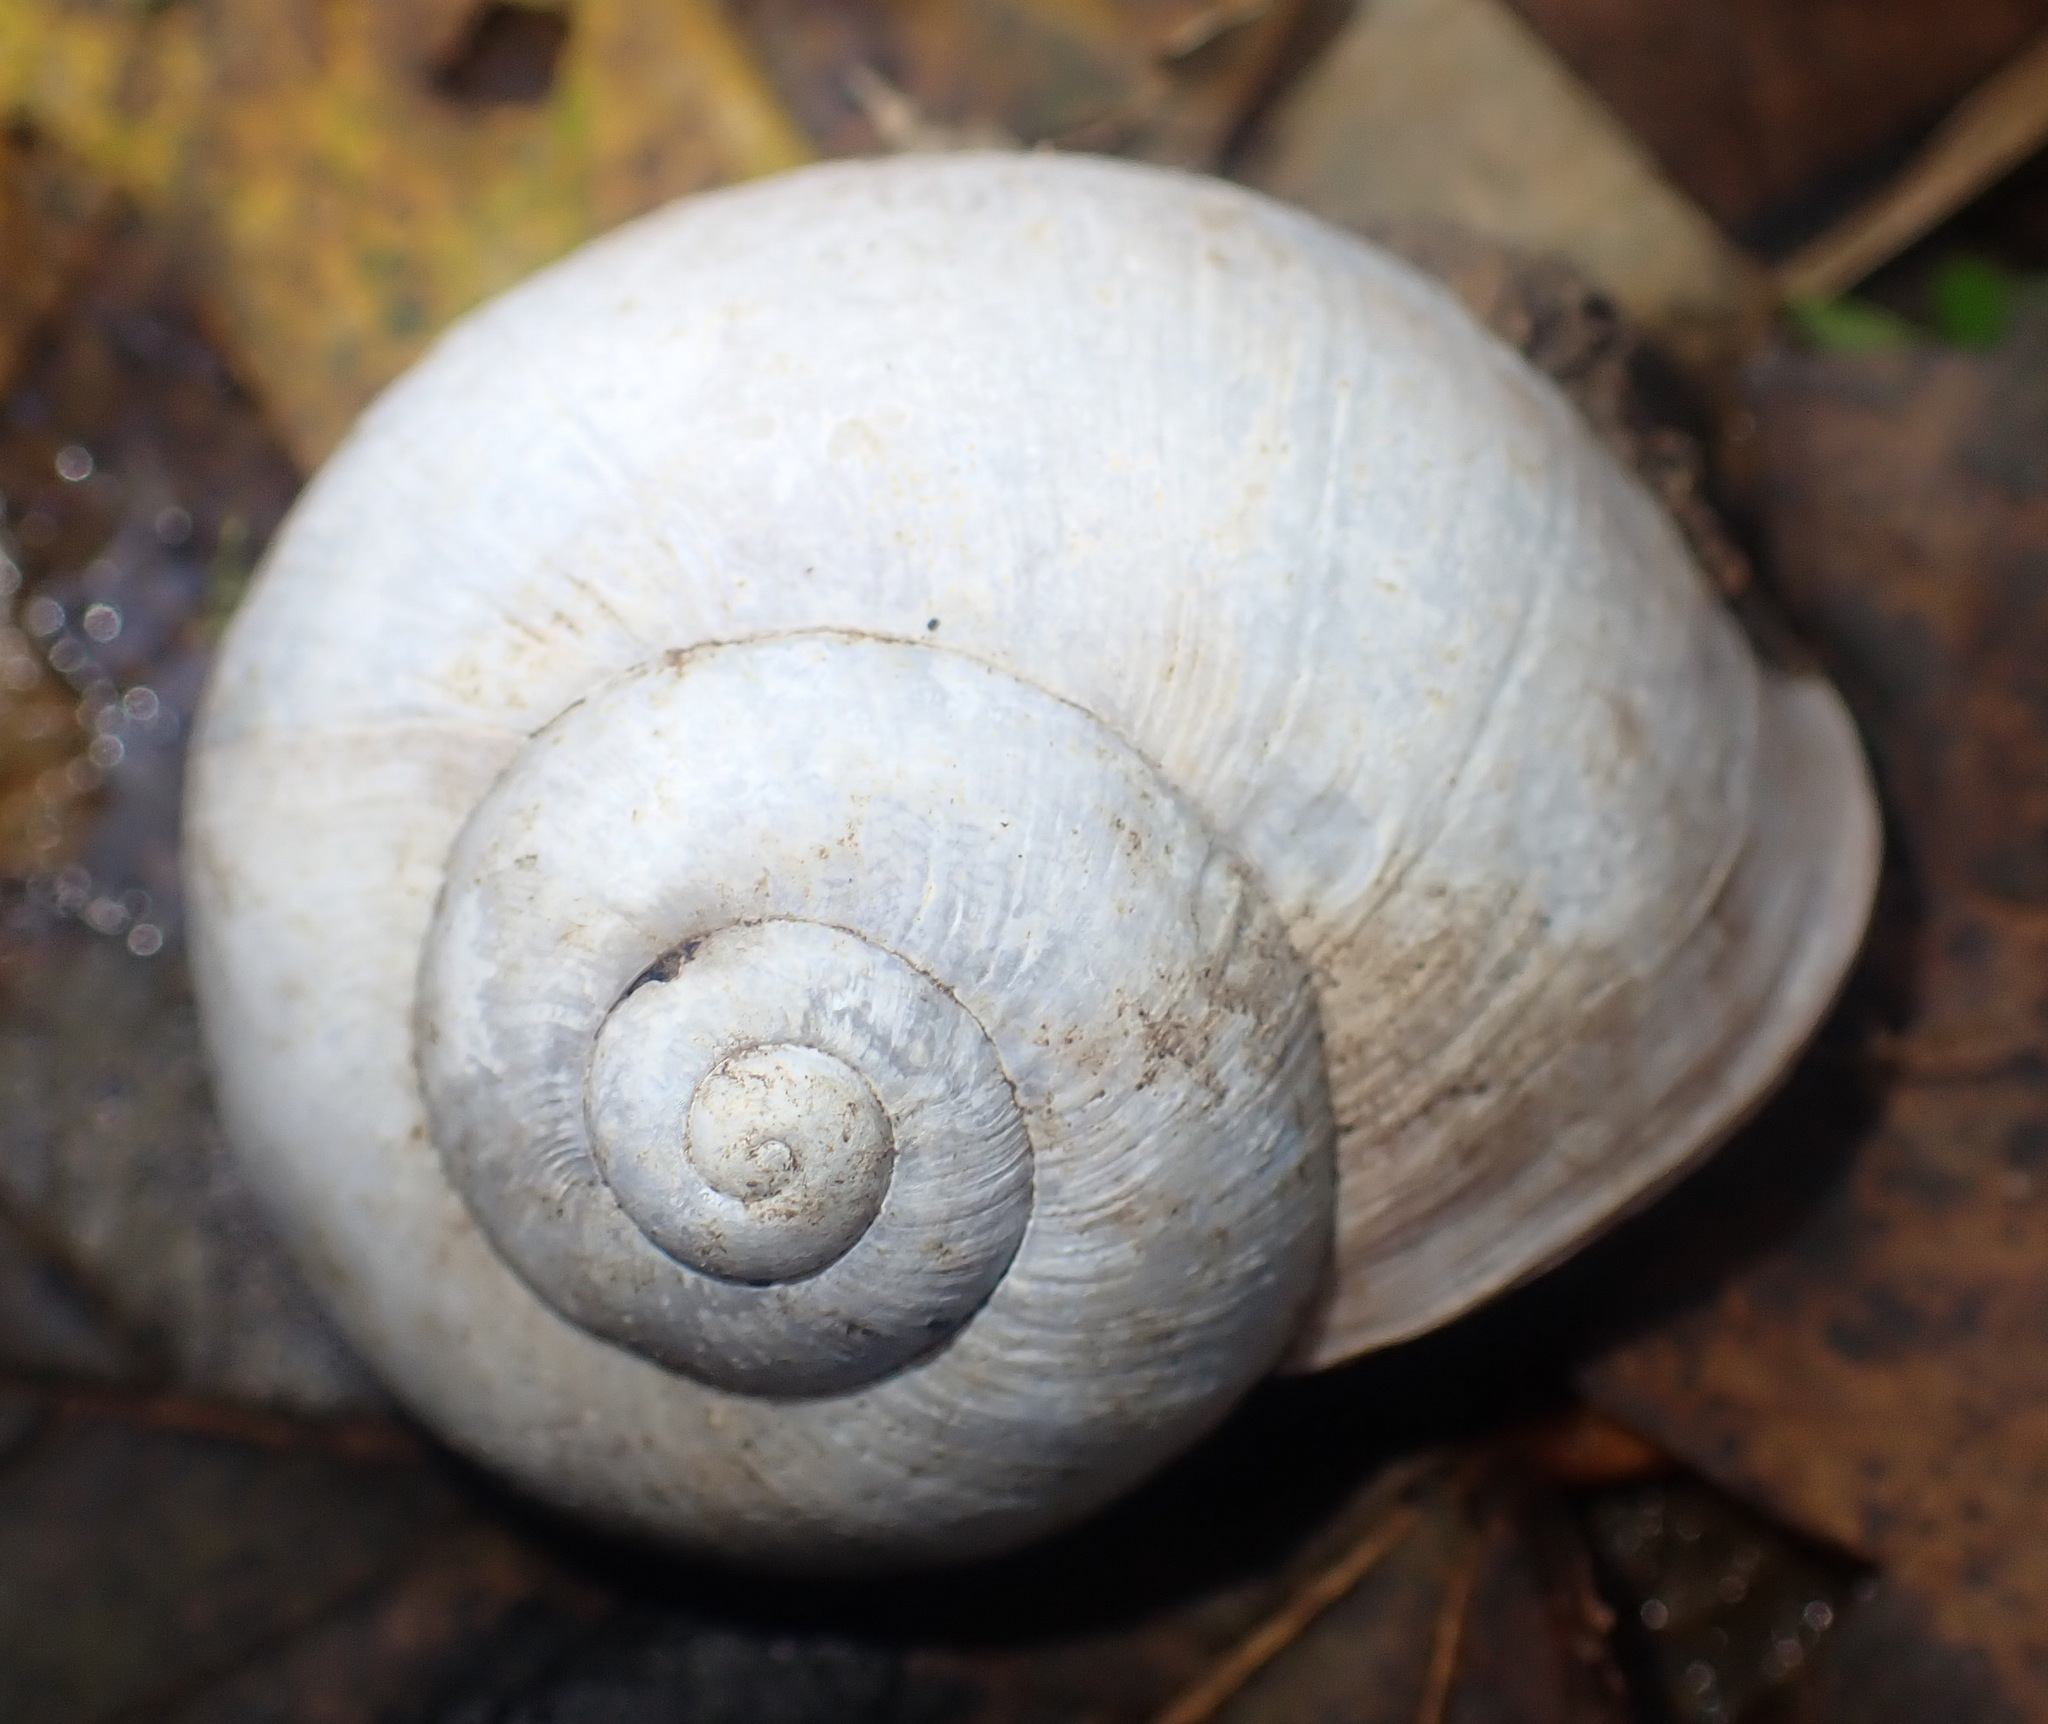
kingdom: Animalia
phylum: Mollusca
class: Gastropoda
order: Stylommatophora
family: Helicidae
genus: Helix
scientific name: Helix pomatia
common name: Roman snail
